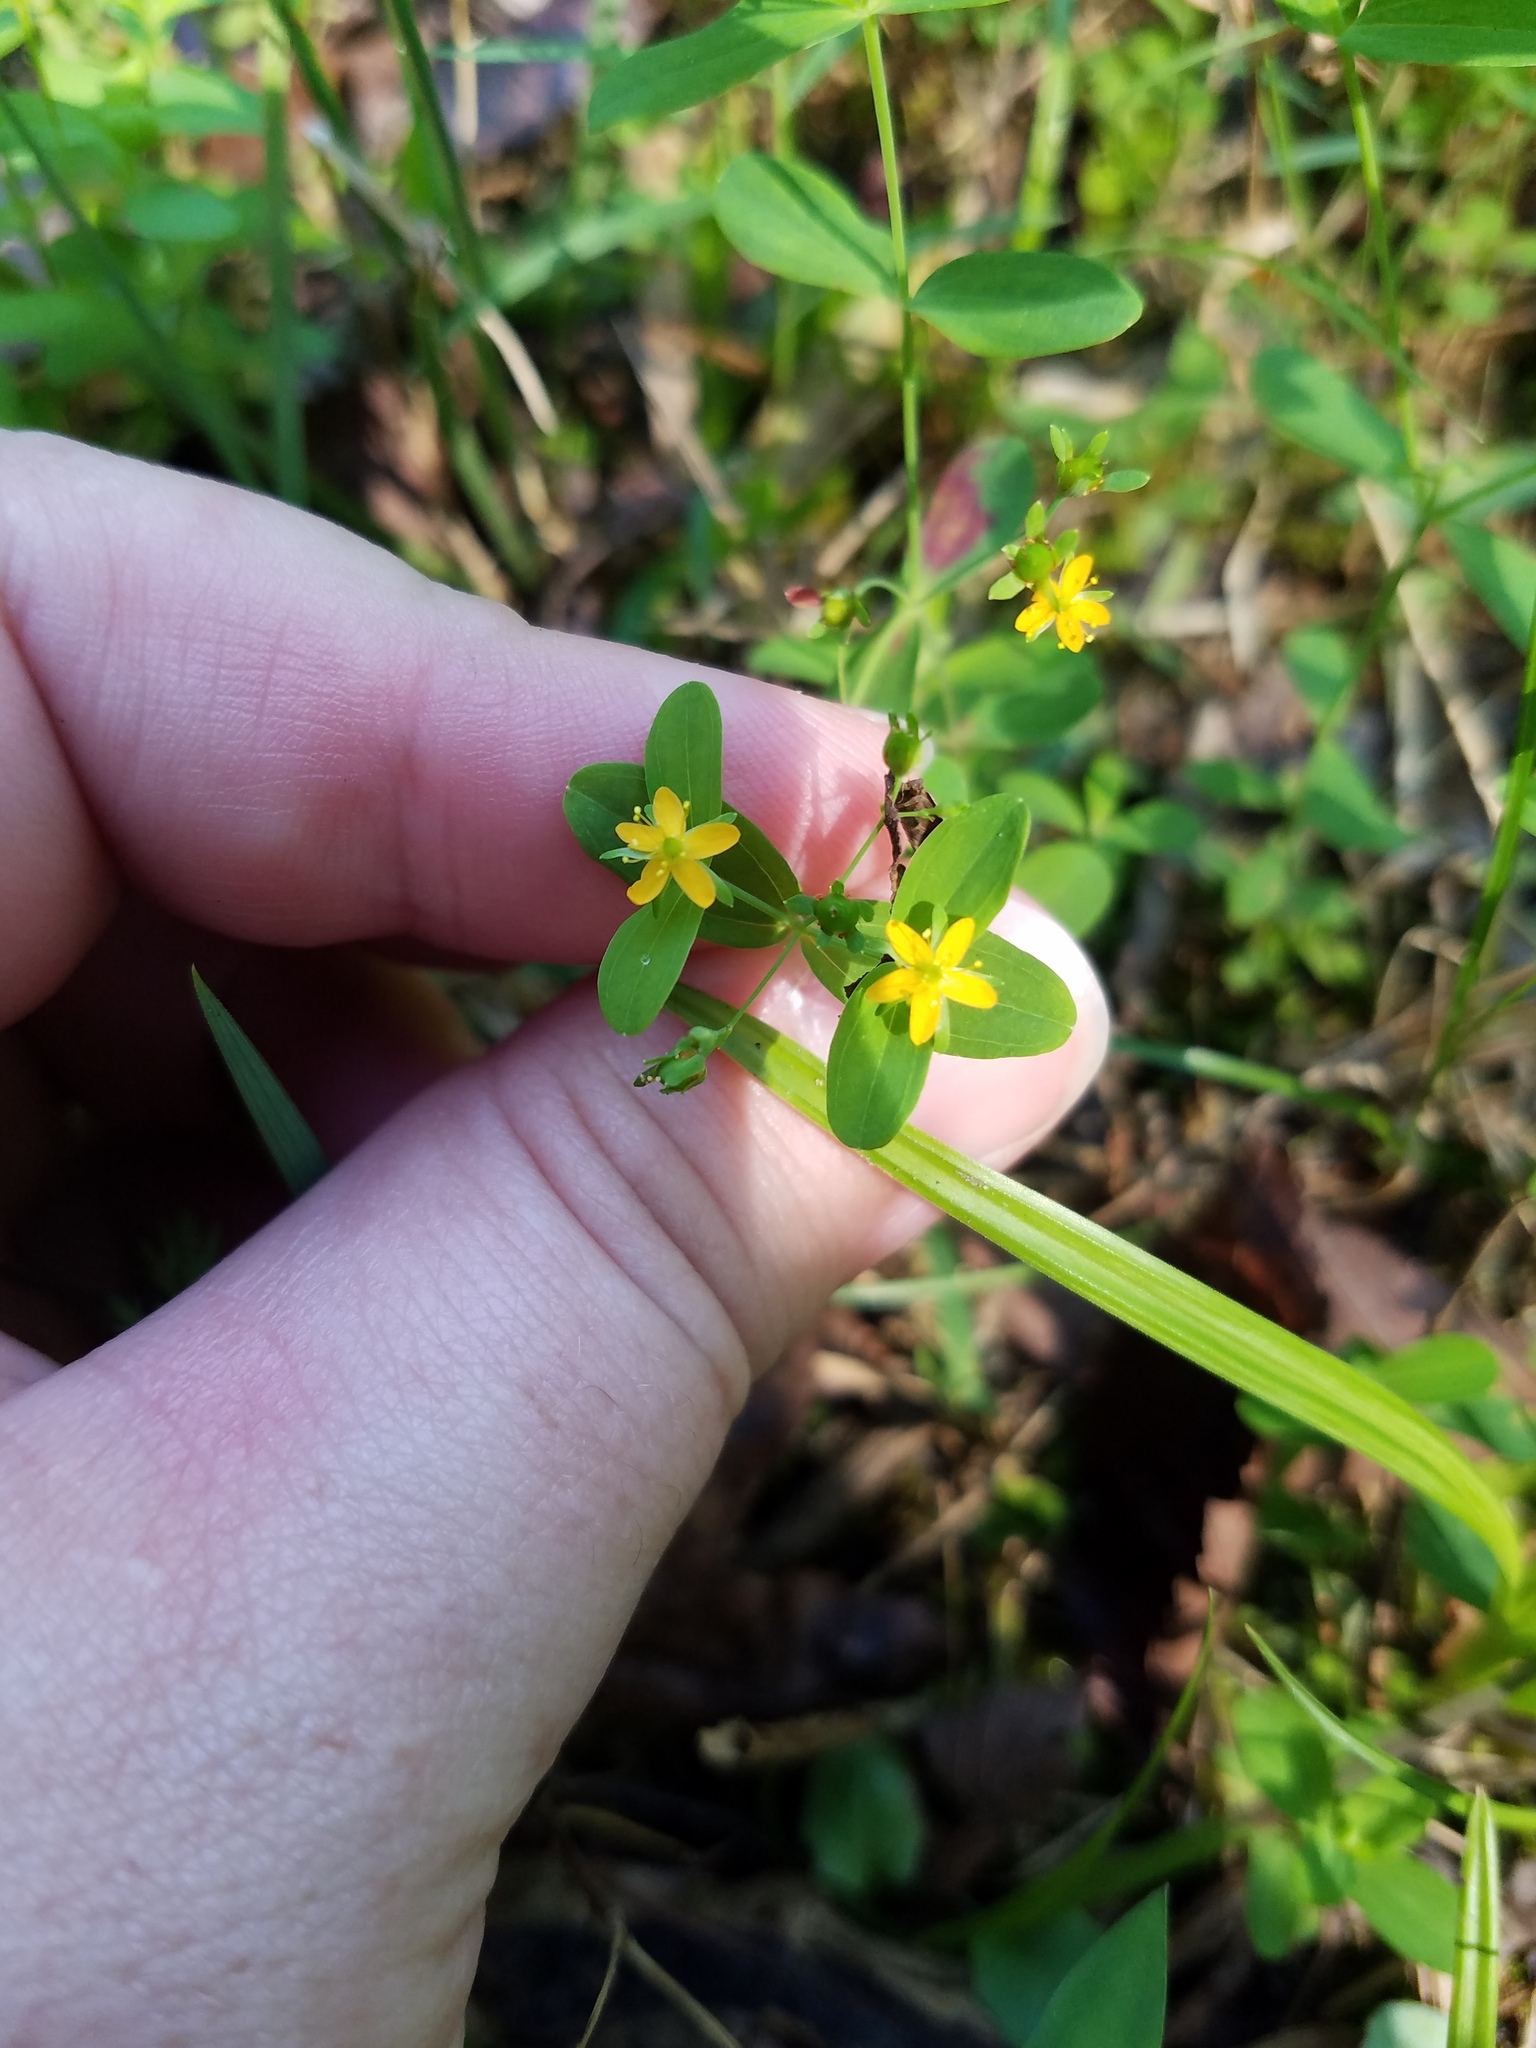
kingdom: Plantae
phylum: Tracheophyta
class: Magnoliopsida
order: Malpighiales
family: Hypericaceae
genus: Hypericum
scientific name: Hypericum mutilum
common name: Dwarf st. john's-wort
